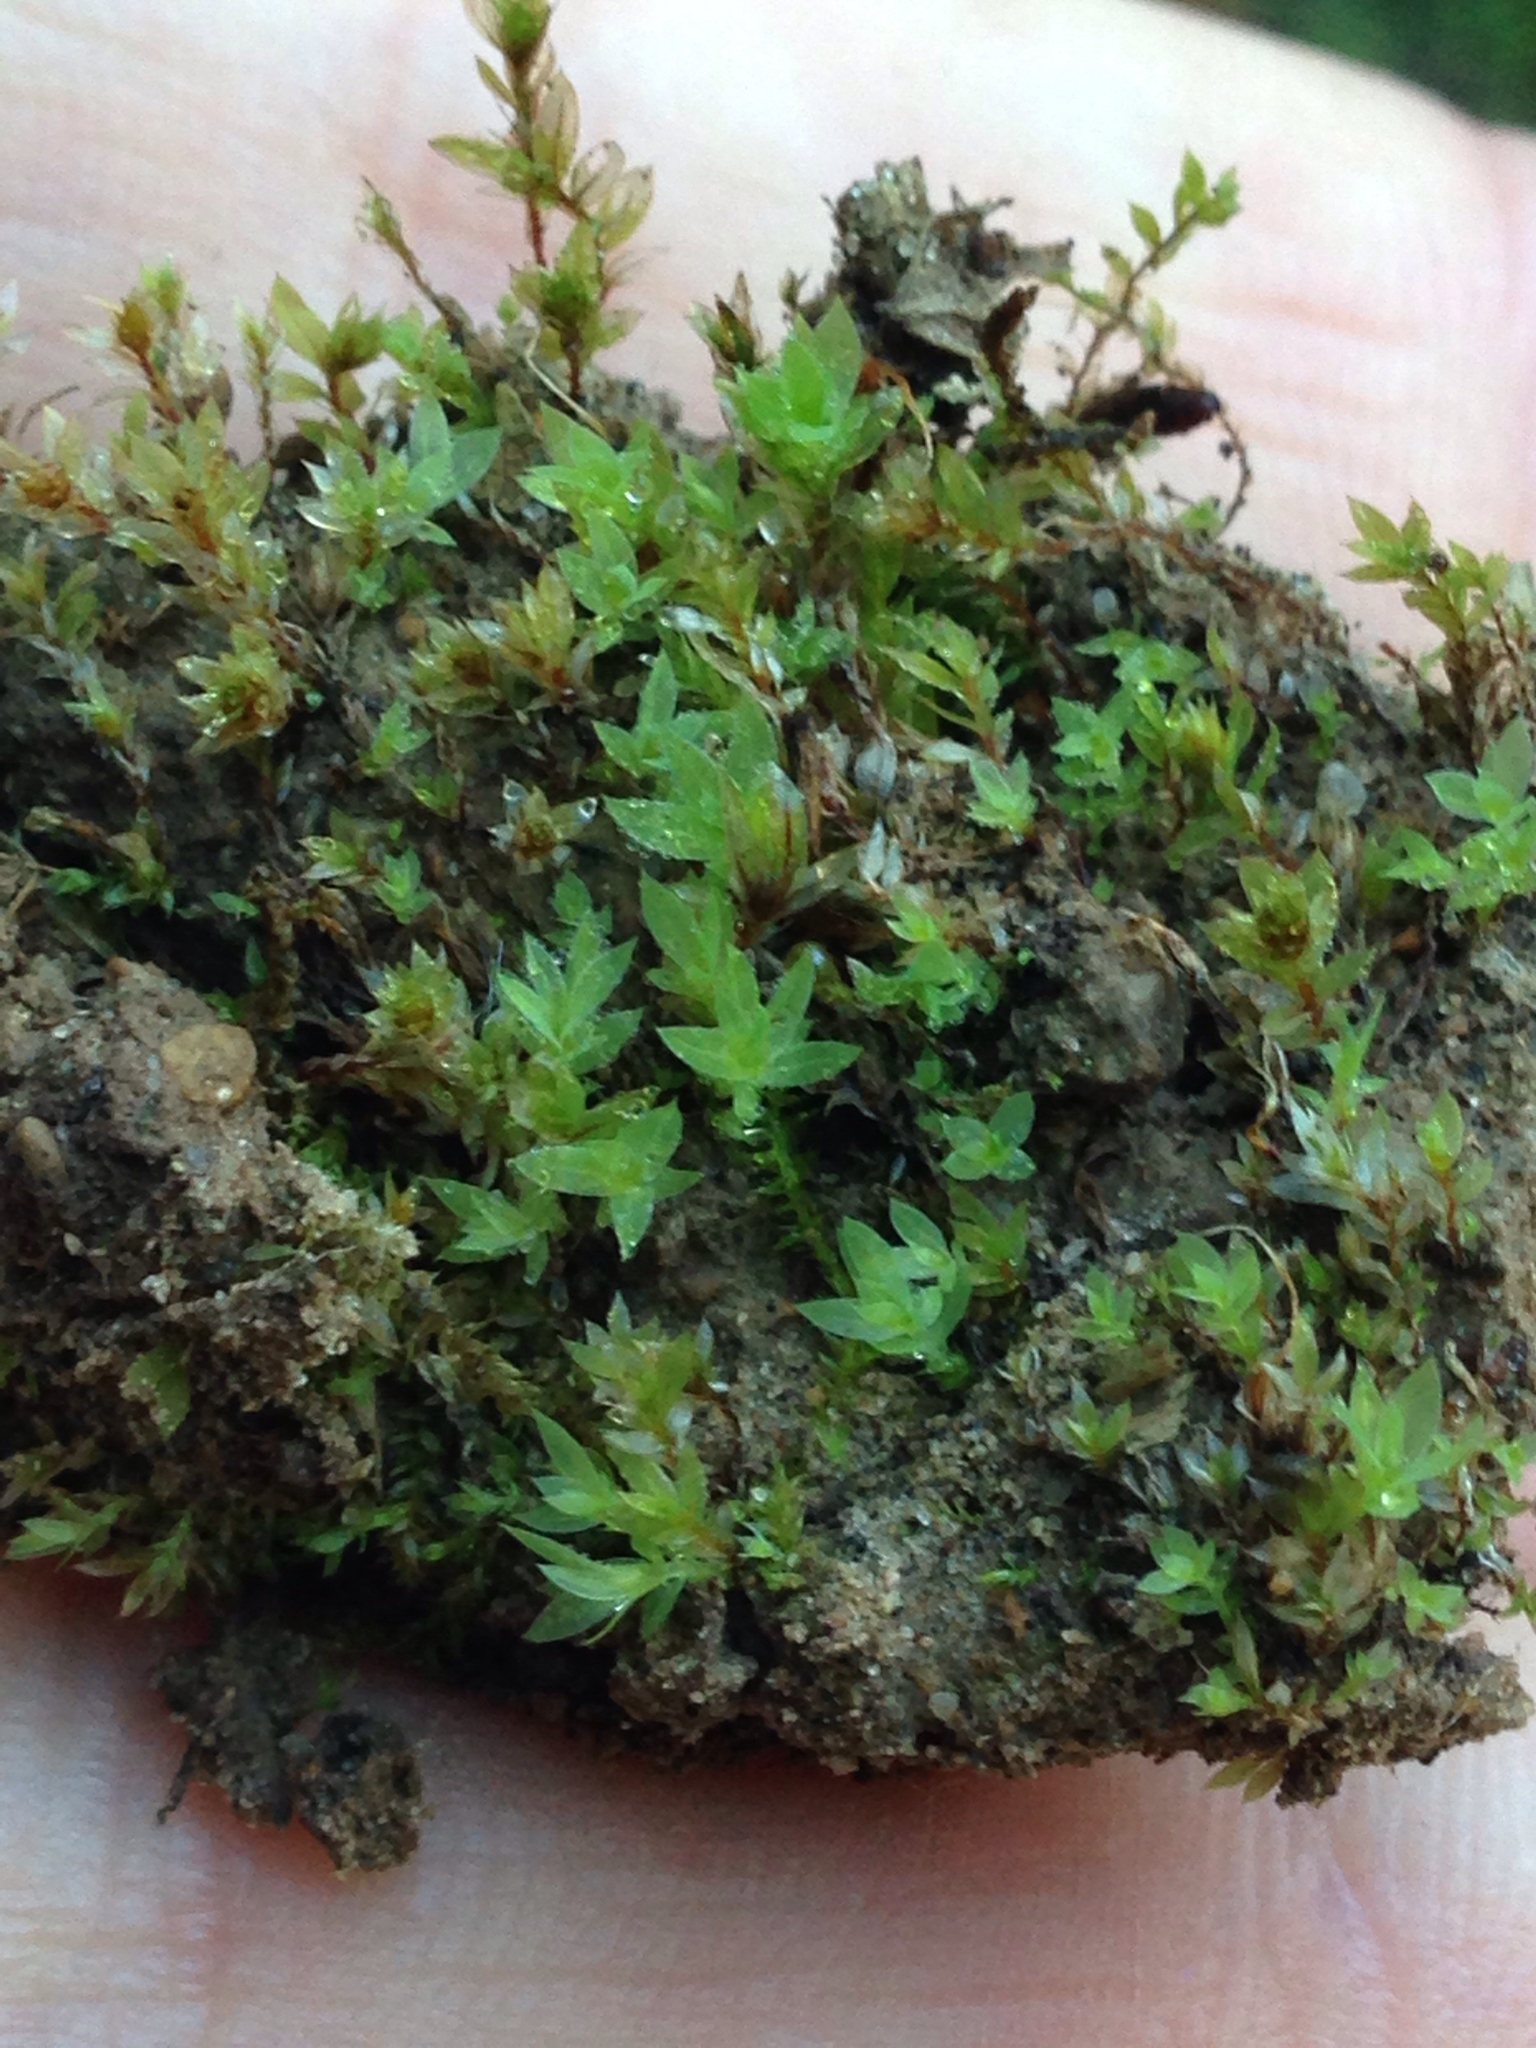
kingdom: Plantae
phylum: Bryophyta
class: Bryopsida
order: Bryales
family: Mniaceae
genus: Epipterygium
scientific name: Epipterygium tozeri
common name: Tozer's thread-moss
